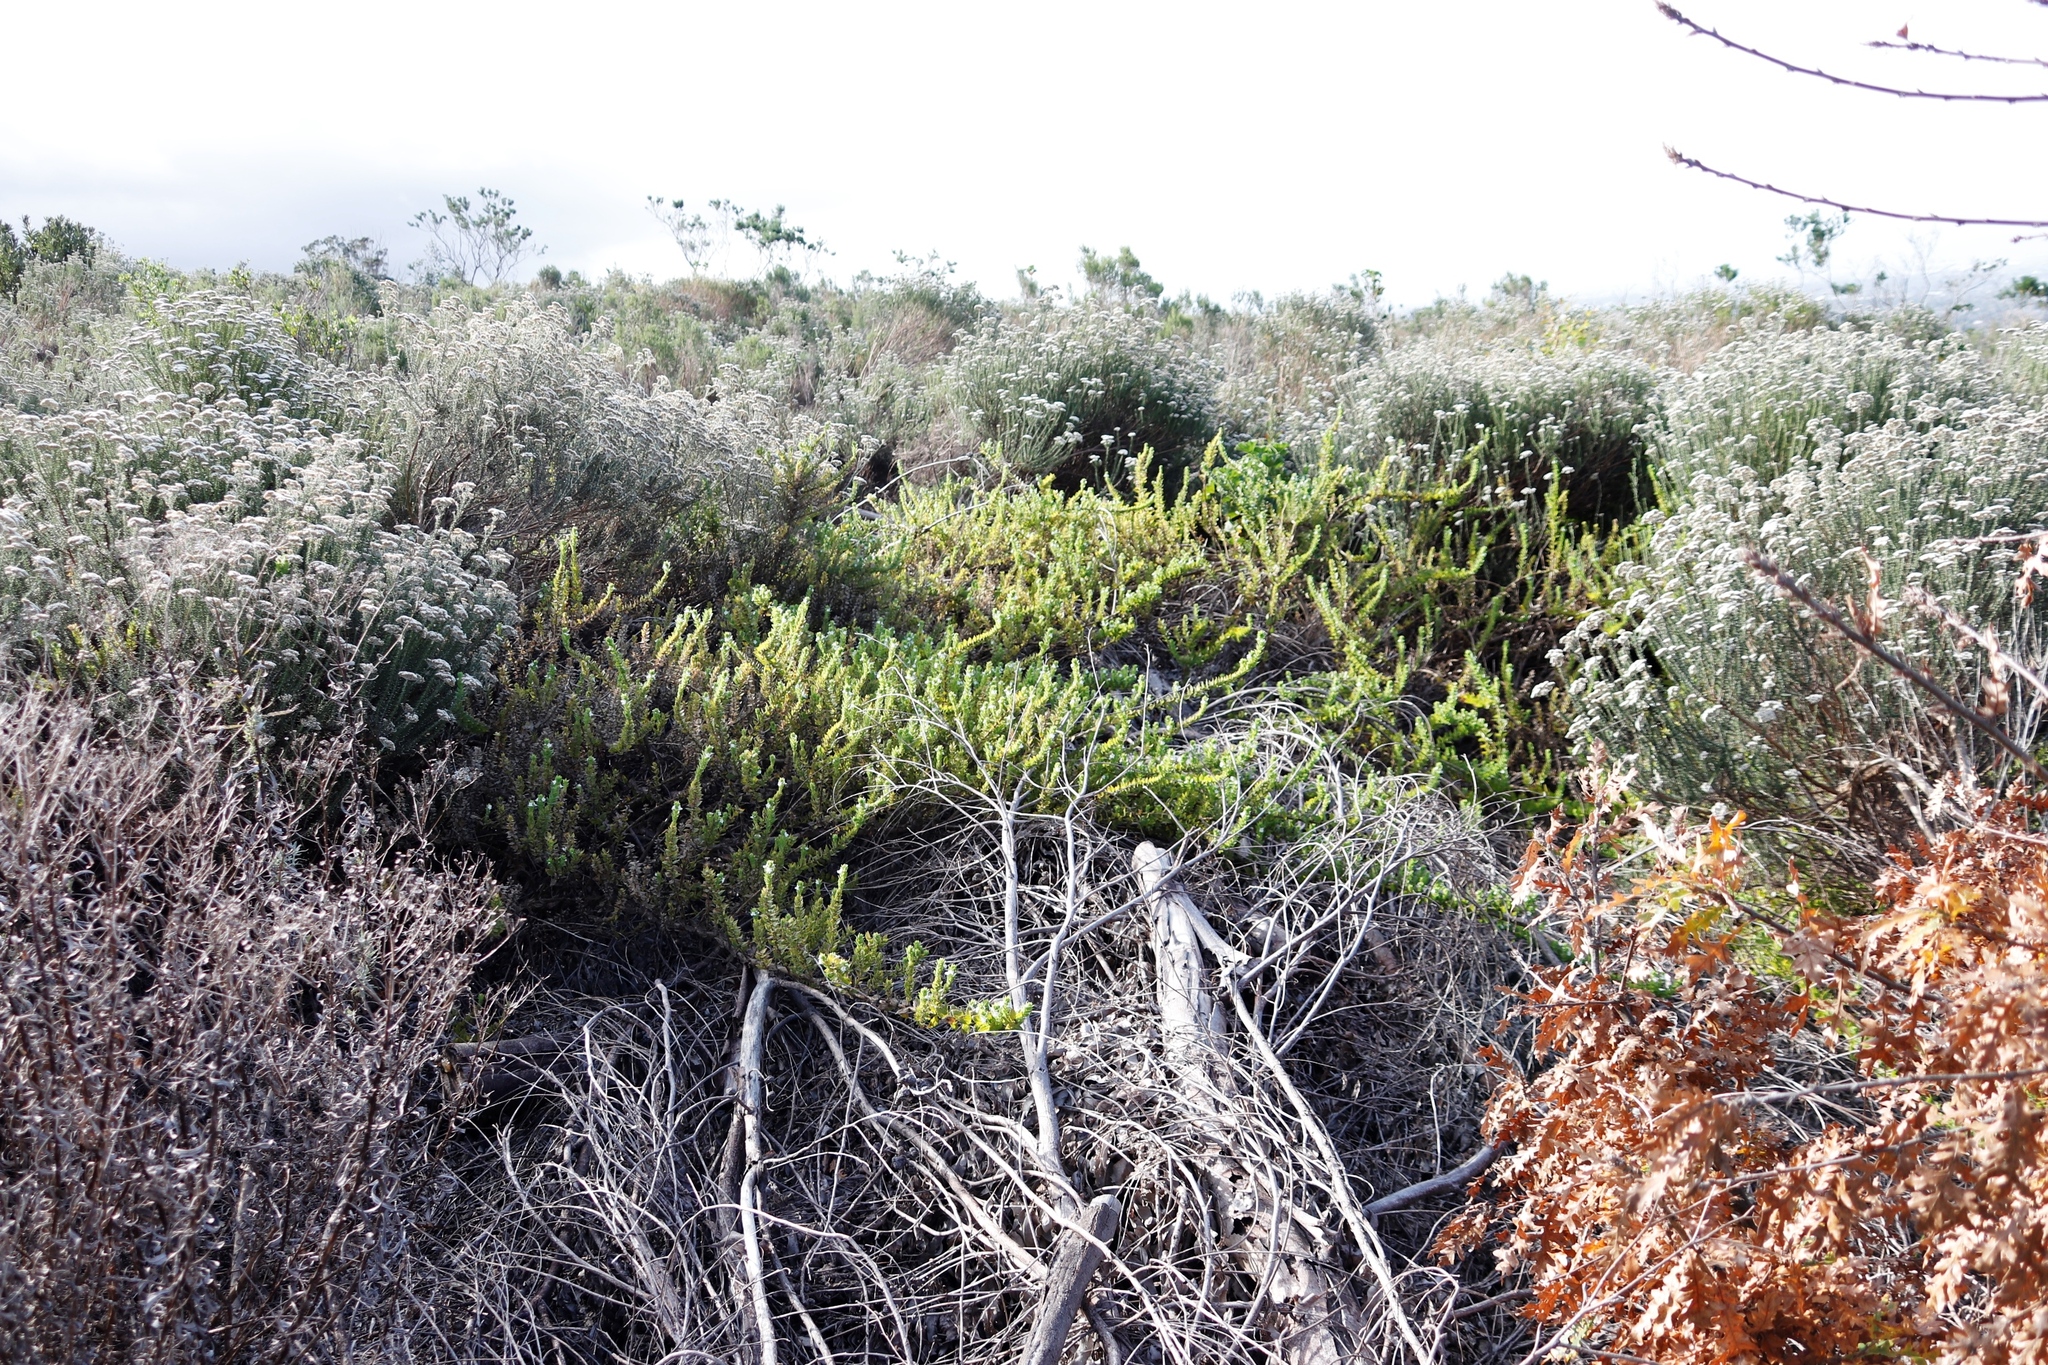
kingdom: Plantae
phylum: Tracheophyta
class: Magnoliopsida
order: Lamiales
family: Scrophulariaceae
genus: Oftia
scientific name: Oftia africana
